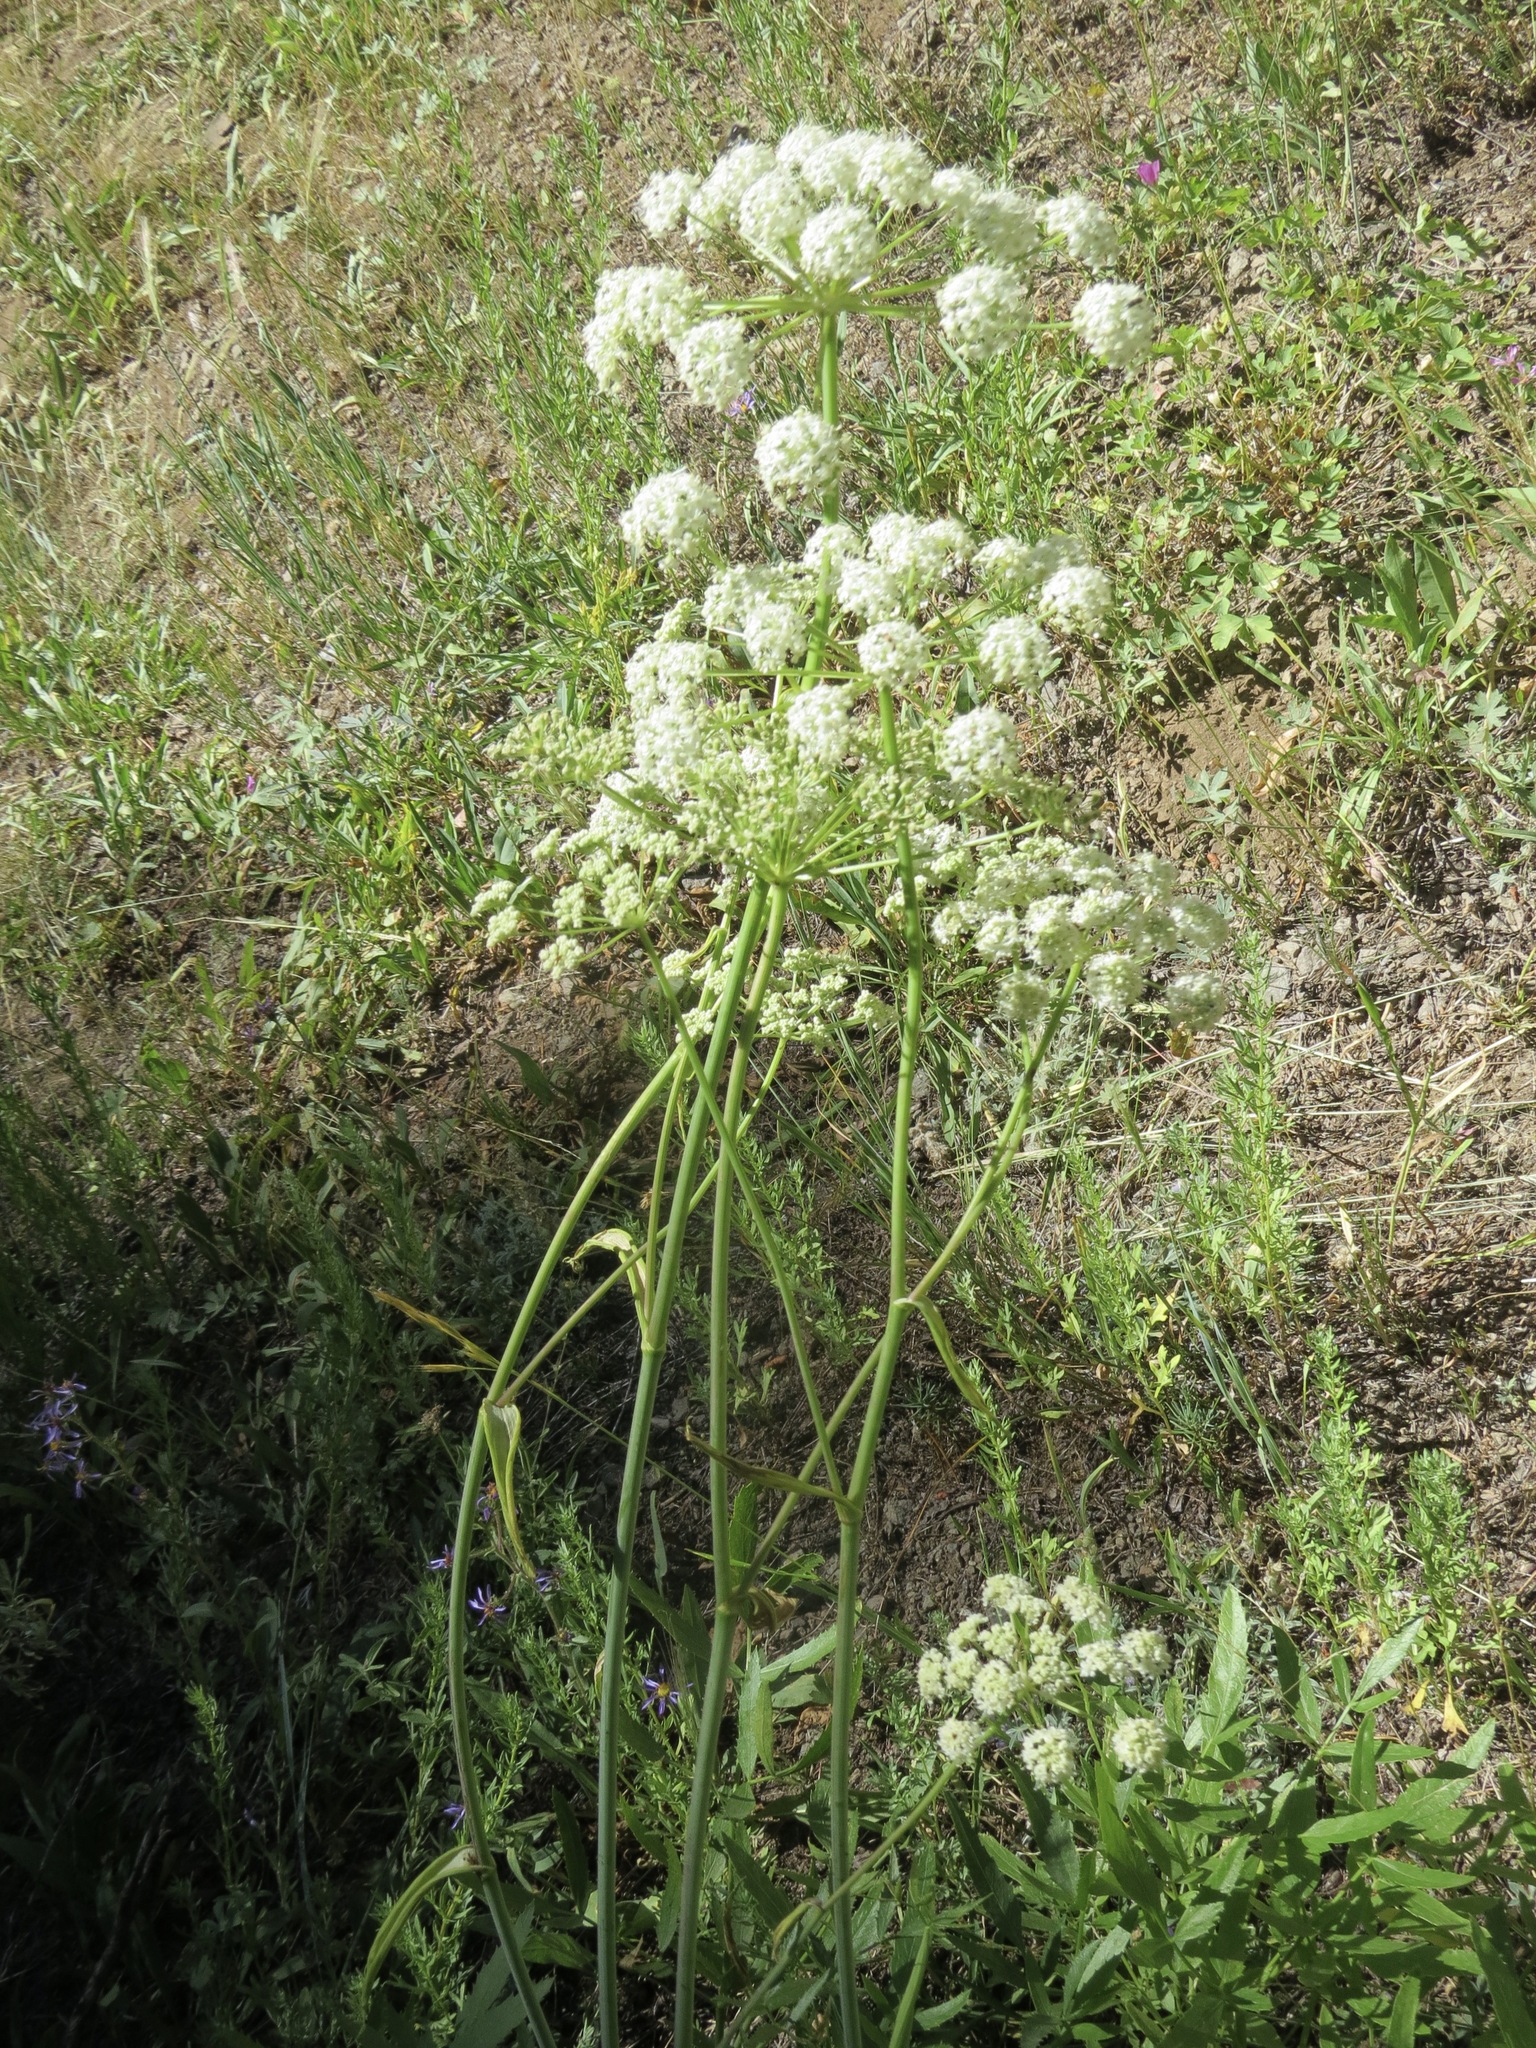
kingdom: Plantae
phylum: Tracheophyta
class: Magnoliopsida
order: Apiales
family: Apiaceae
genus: Angelica
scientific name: Angelica breweri
